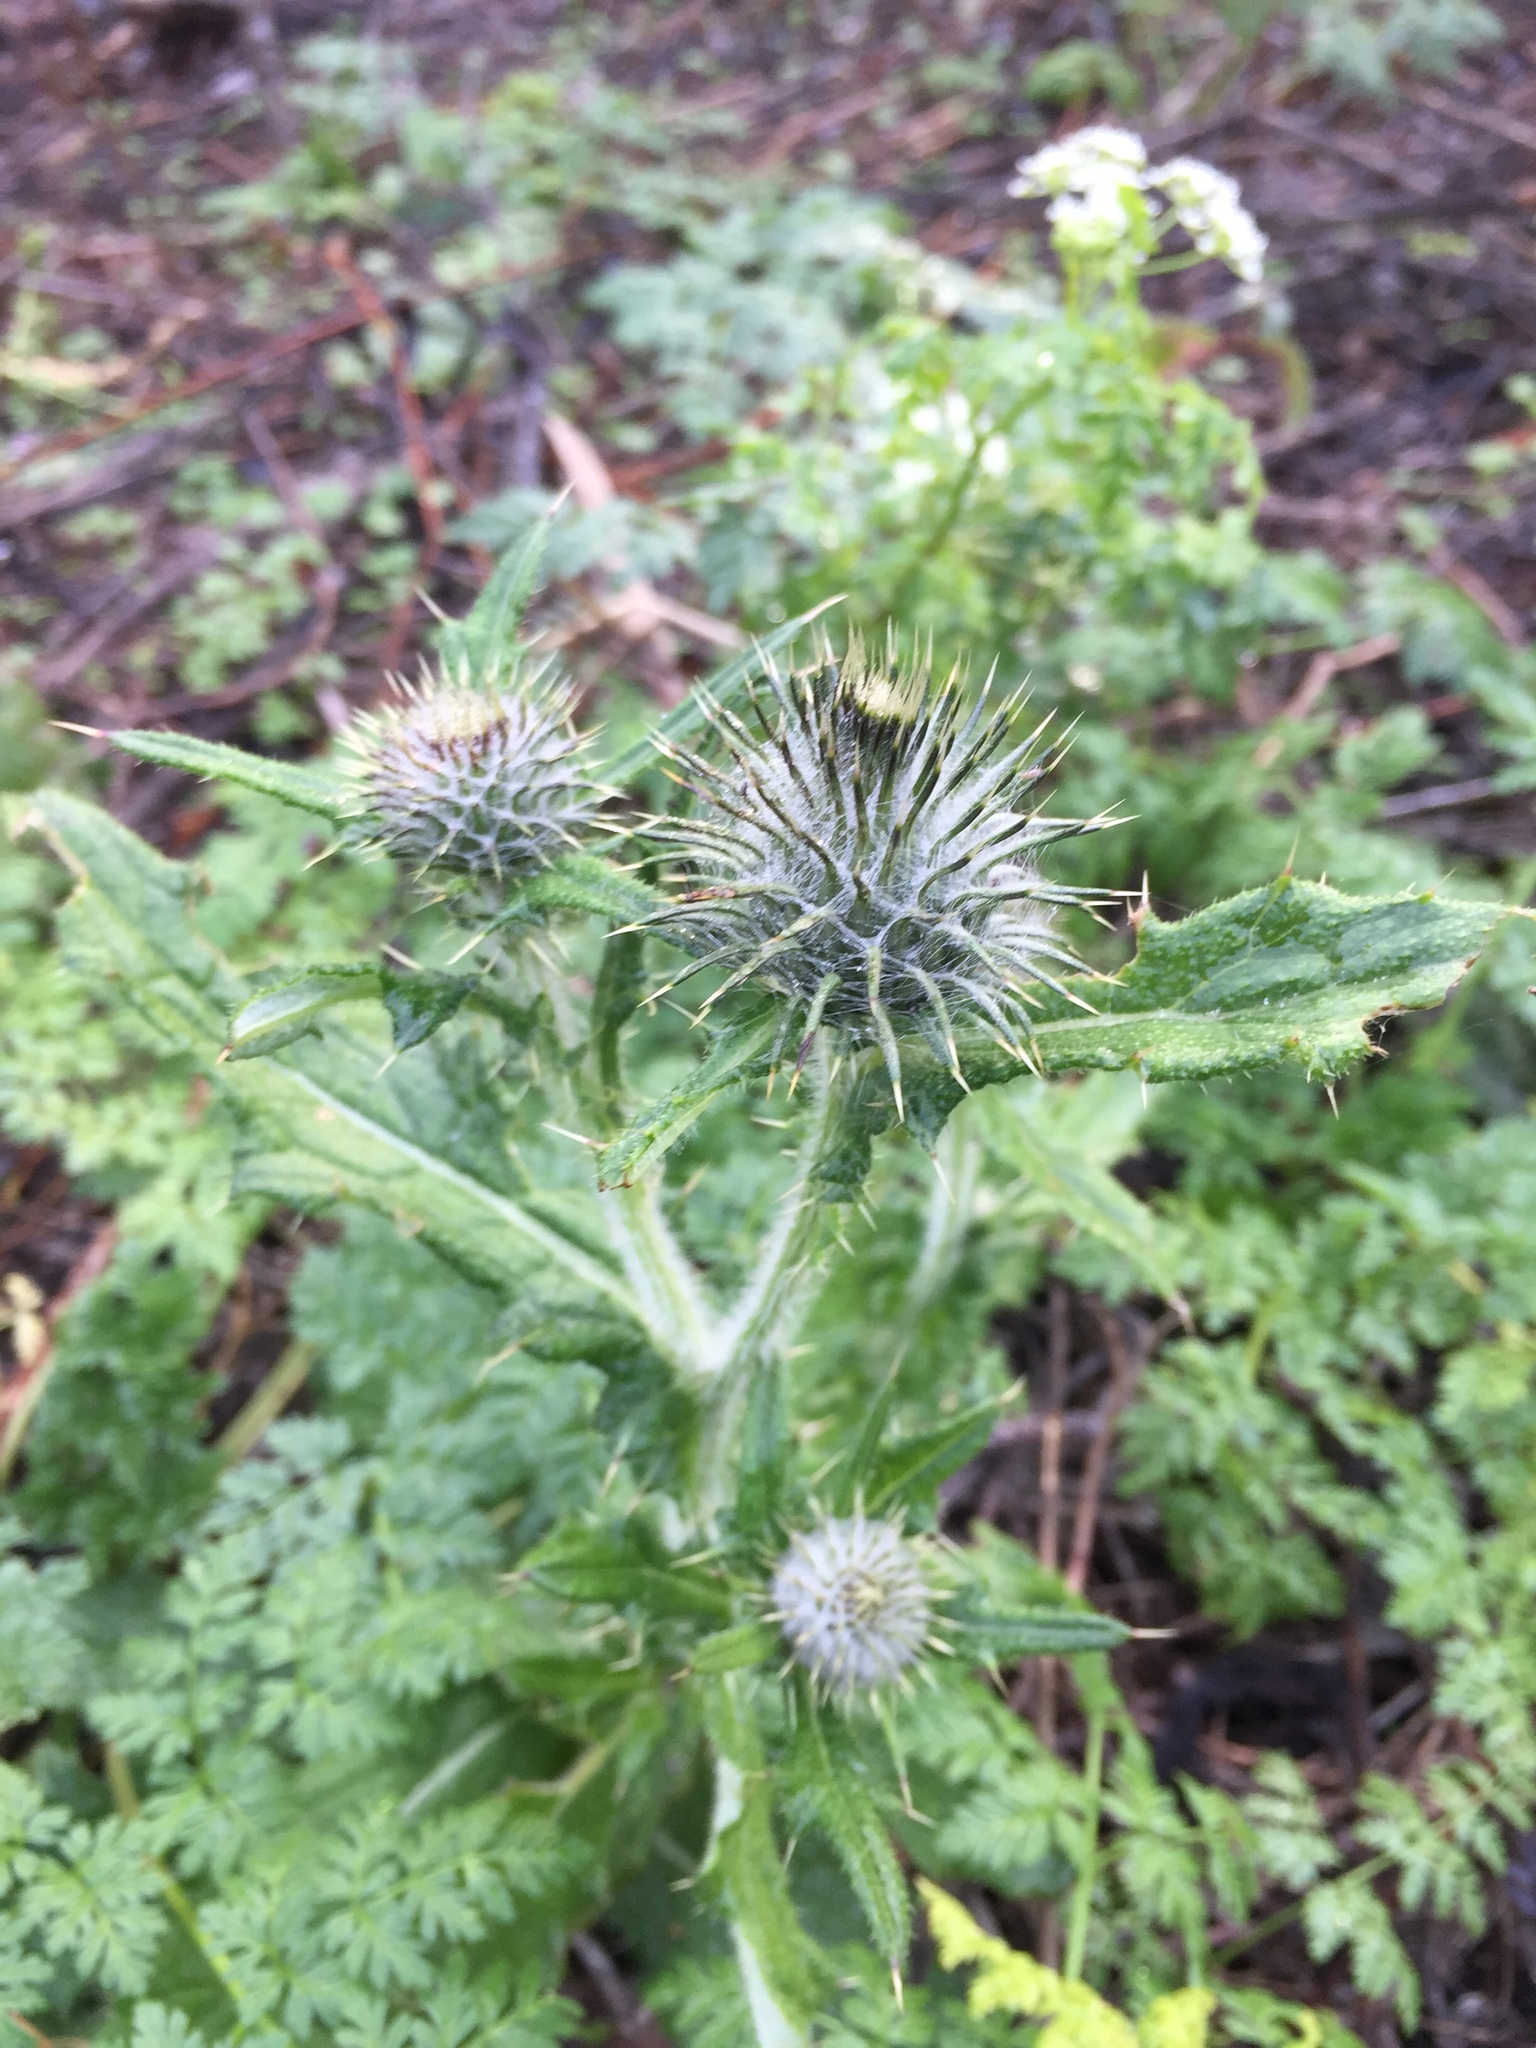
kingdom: Plantae
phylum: Tracheophyta
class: Magnoliopsida
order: Asterales
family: Asteraceae
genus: Cirsium
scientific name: Cirsium vulgare
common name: Bull thistle
